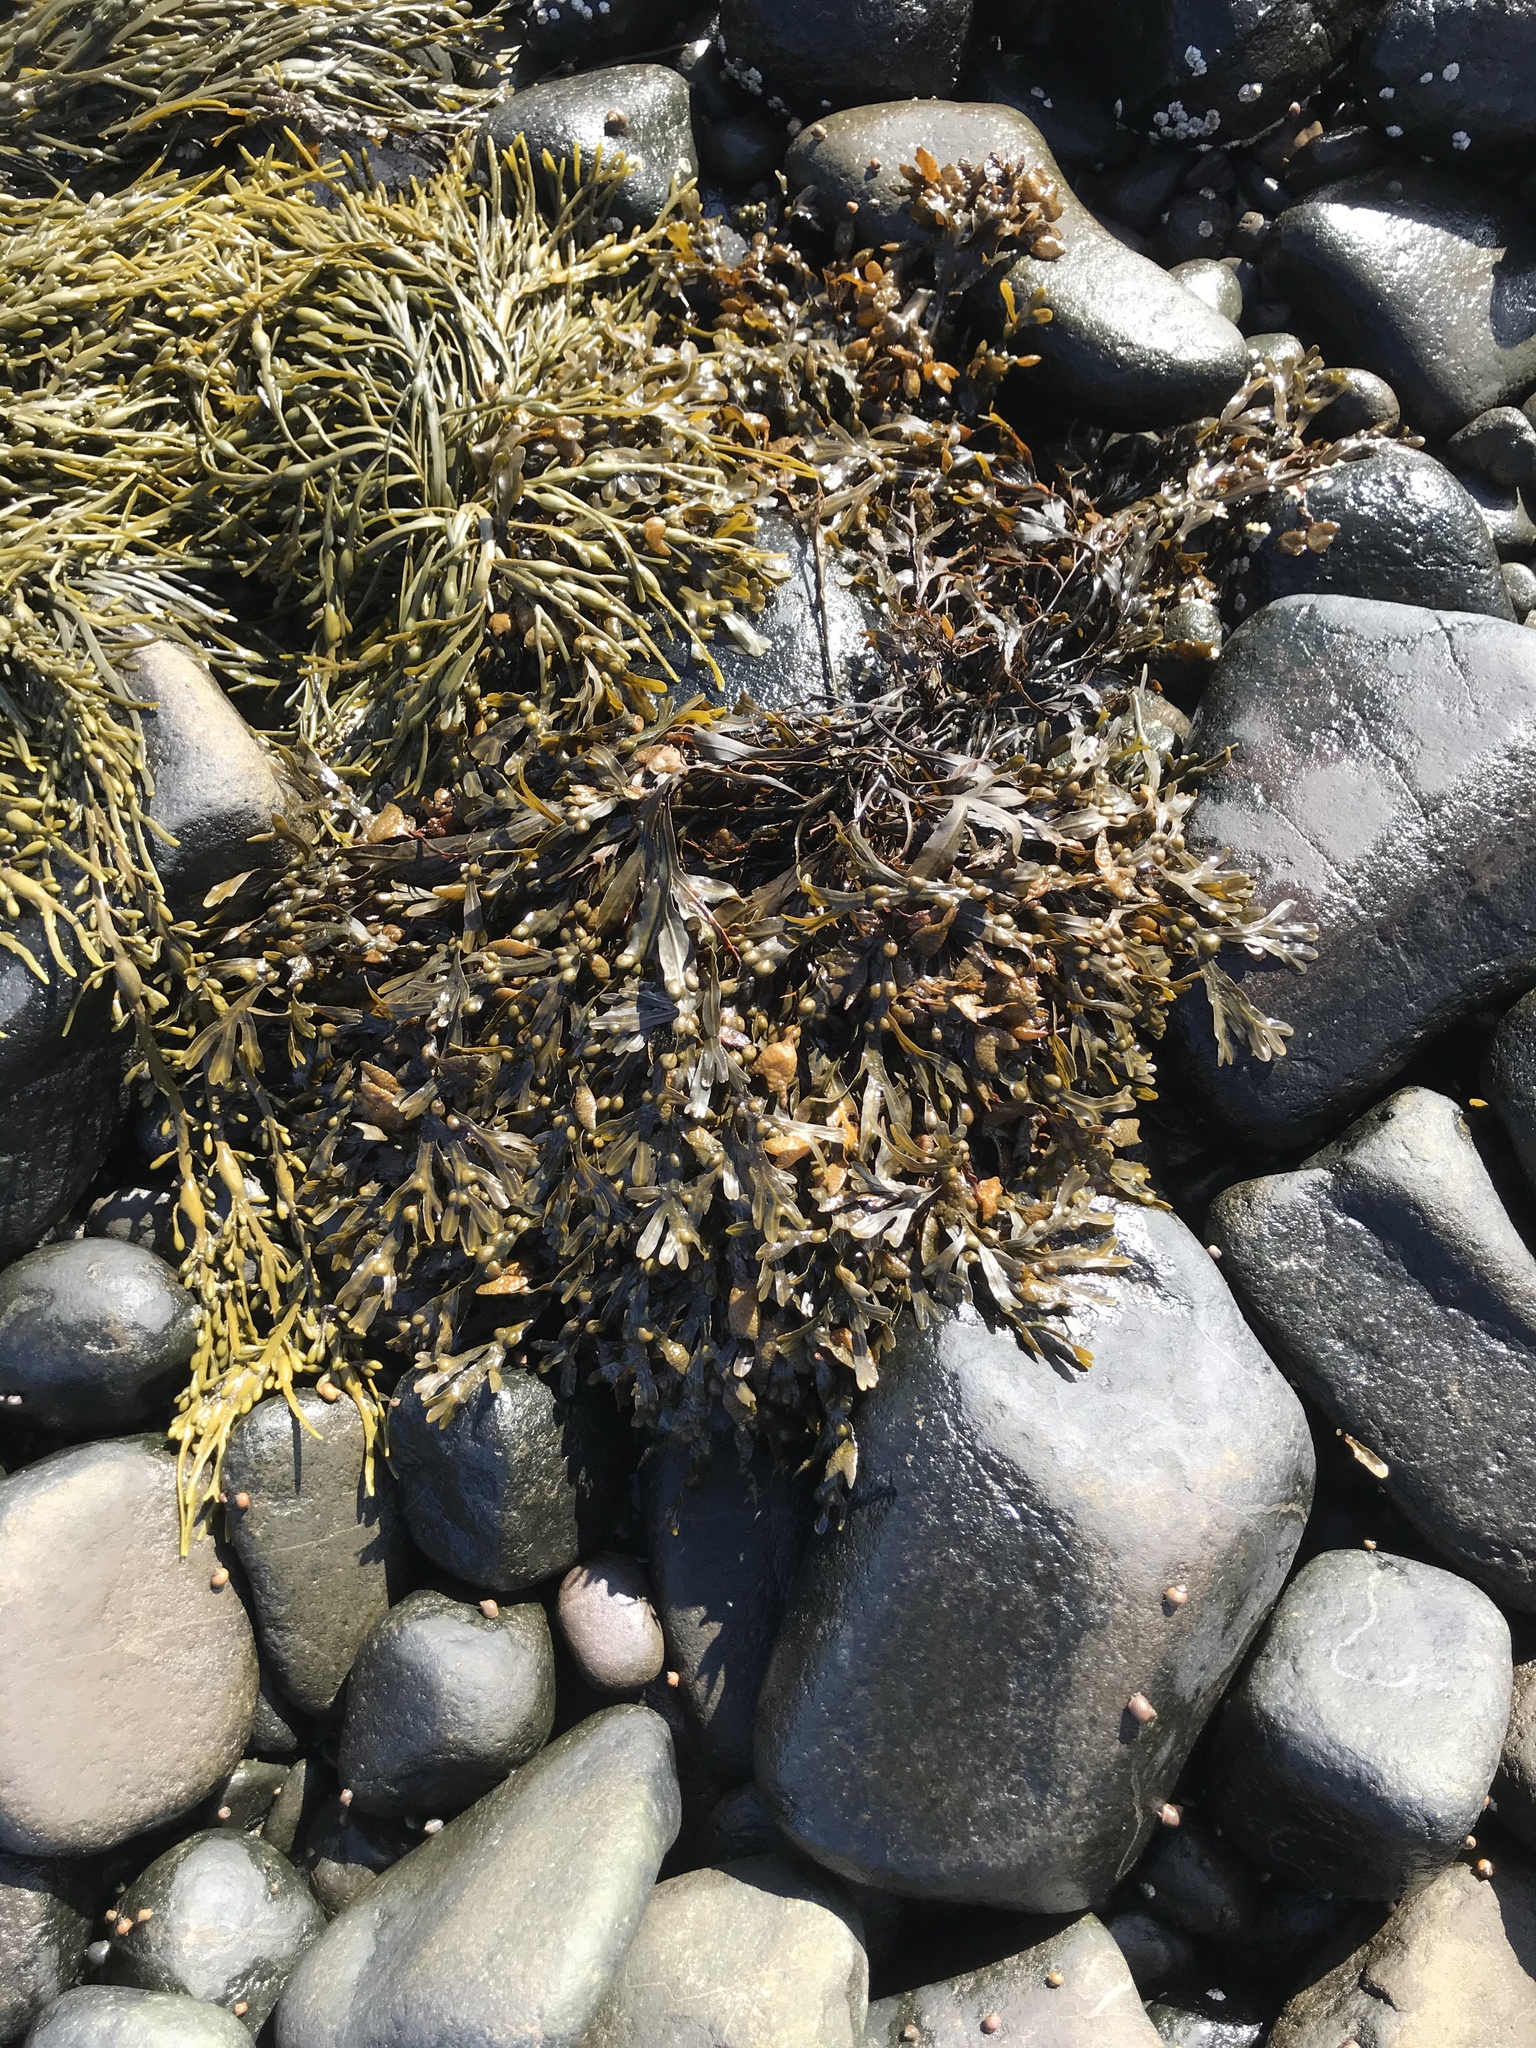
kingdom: Chromista
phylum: Ochrophyta
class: Phaeophyceae
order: Fucales
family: Fucaceae
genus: Fucus
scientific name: Fucus vesiculosus
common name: Bladder wrack
